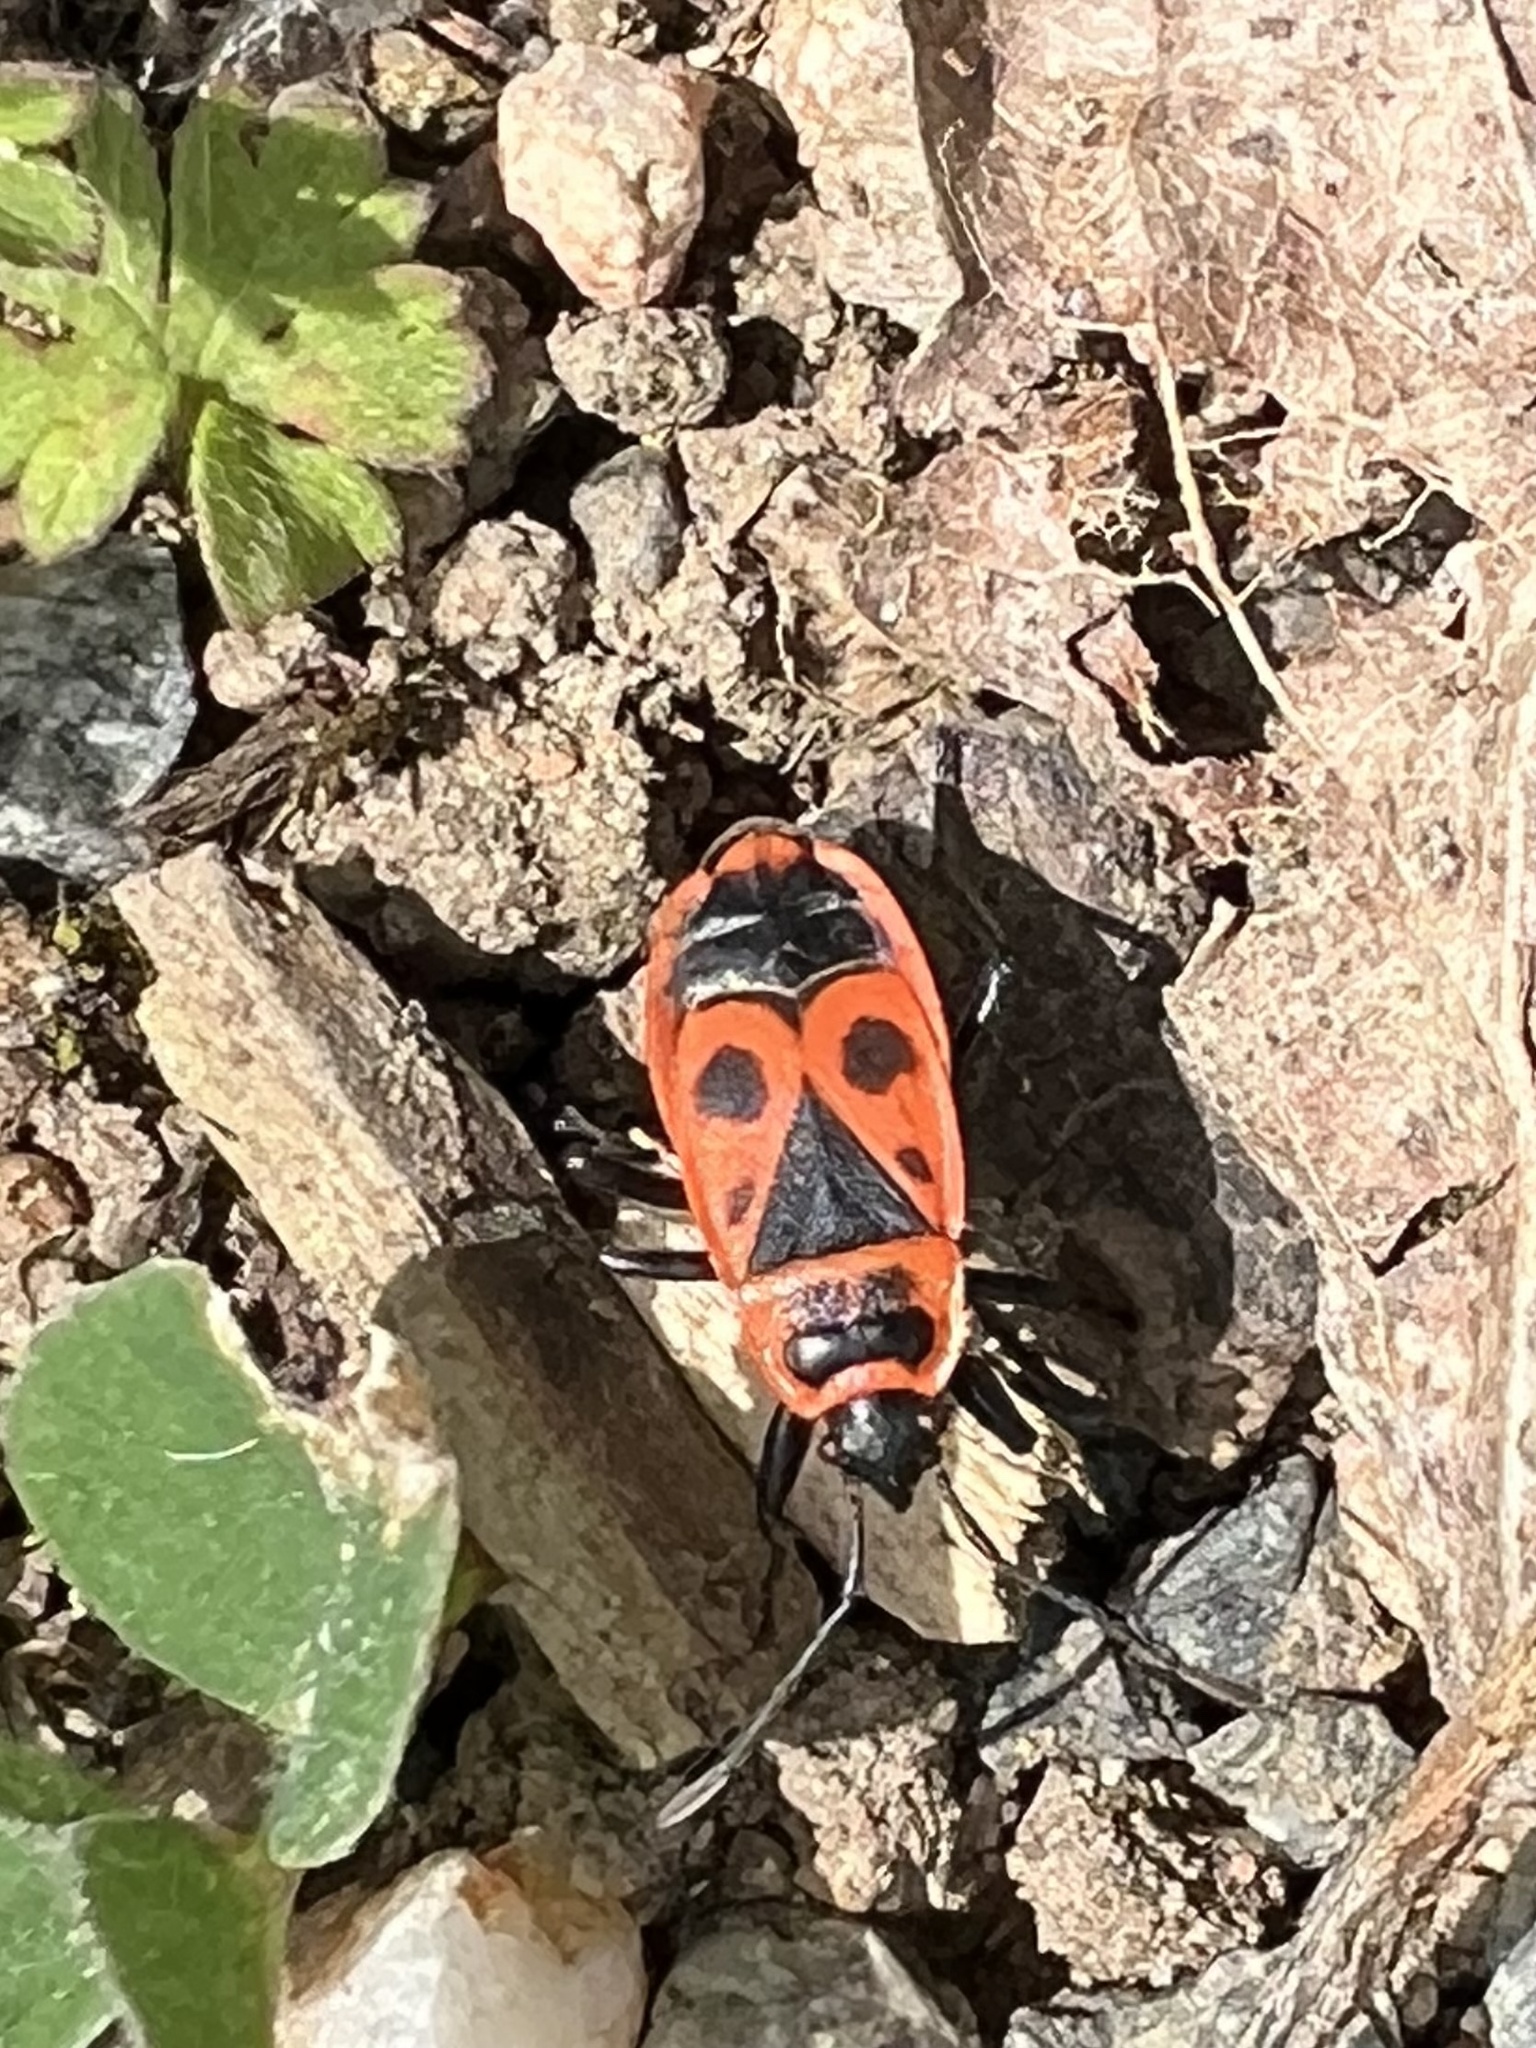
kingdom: Animalia
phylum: Arthropoda
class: Insecta
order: Hemiptera
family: Pyrrhocoridae
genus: Pyrrhocoris
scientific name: Pyrrhocoris apterus
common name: Firebug
